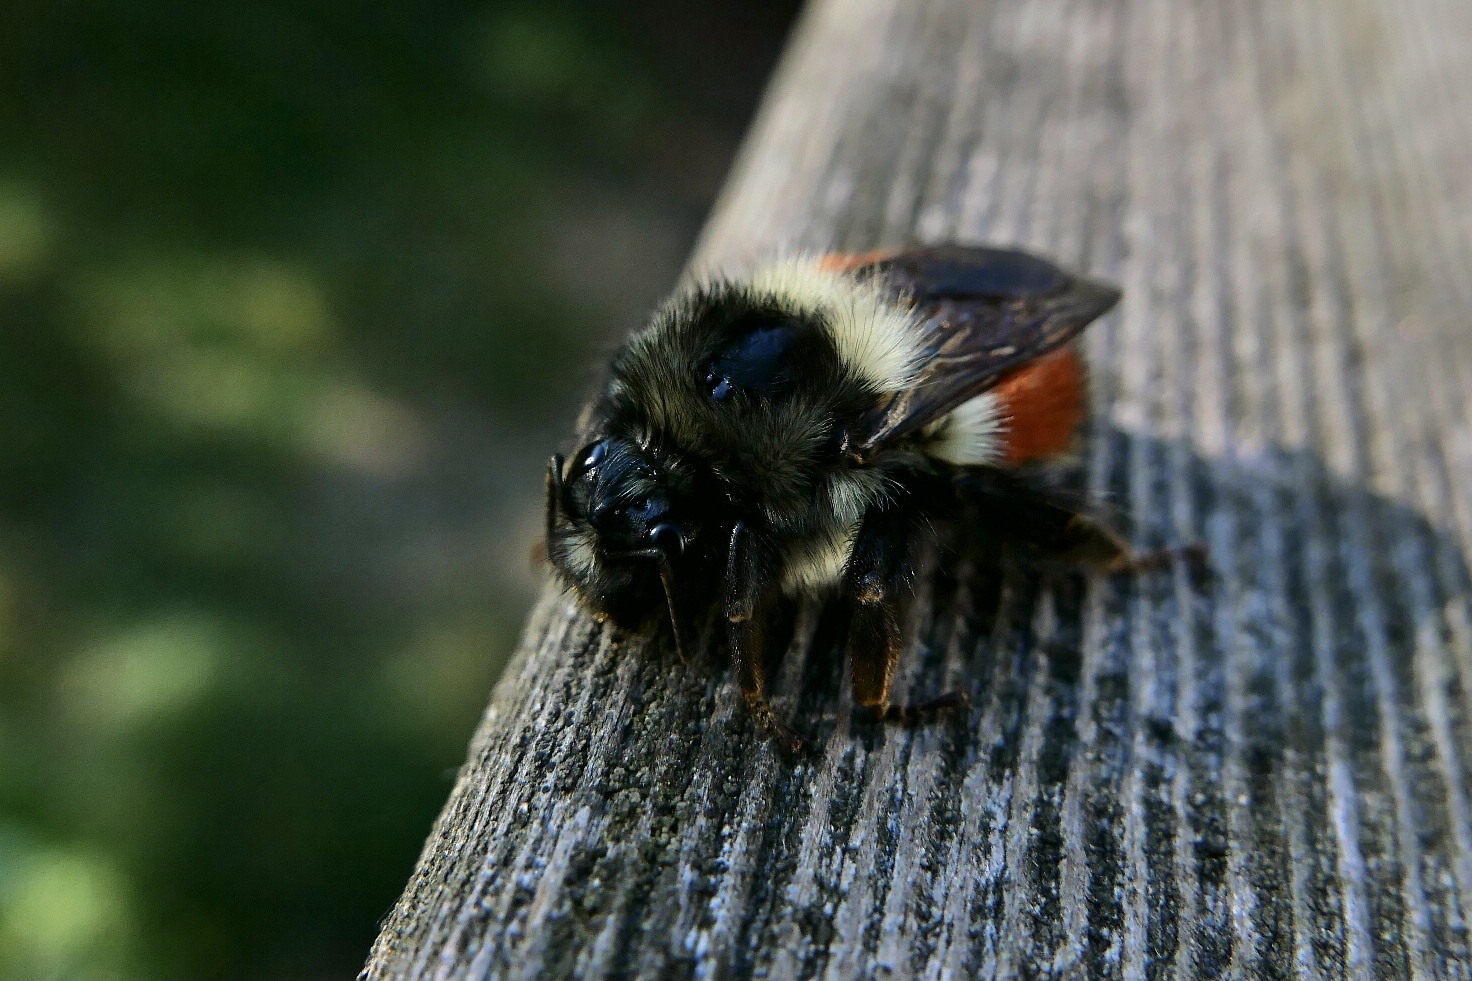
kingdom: Animalia
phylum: Arthropoda
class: Insecta
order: Hymenoptera
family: Apidae
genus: Bombus
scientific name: Bombus melanopygus
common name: Black tail bumble bee
